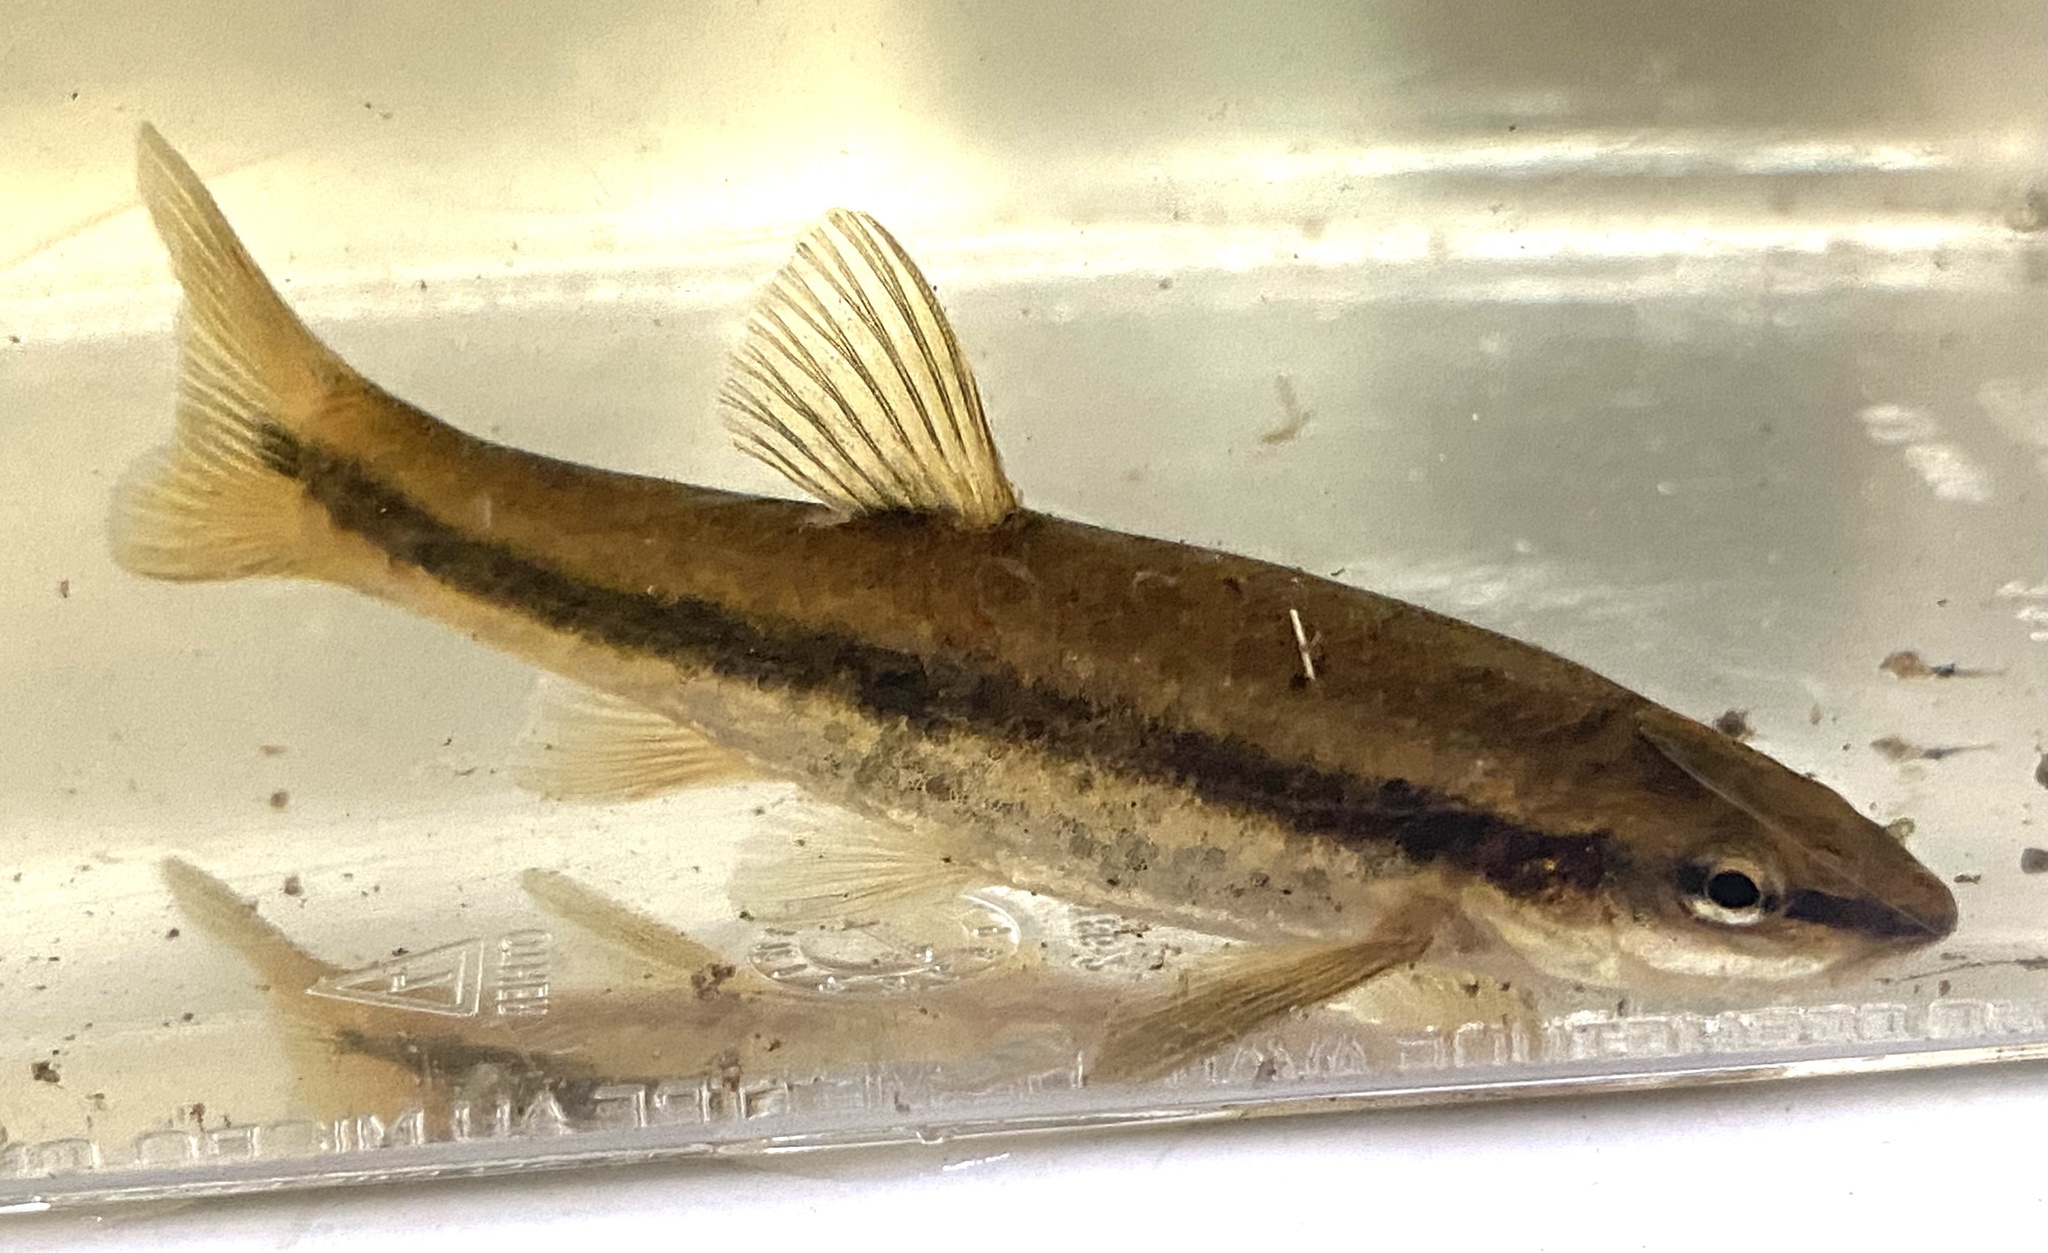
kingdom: Animalia
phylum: Chordata
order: Cypriniformes
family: Cyprinidae
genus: Rhinichthys
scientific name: Rhinichthys obtusus
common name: Western blacknose dace
